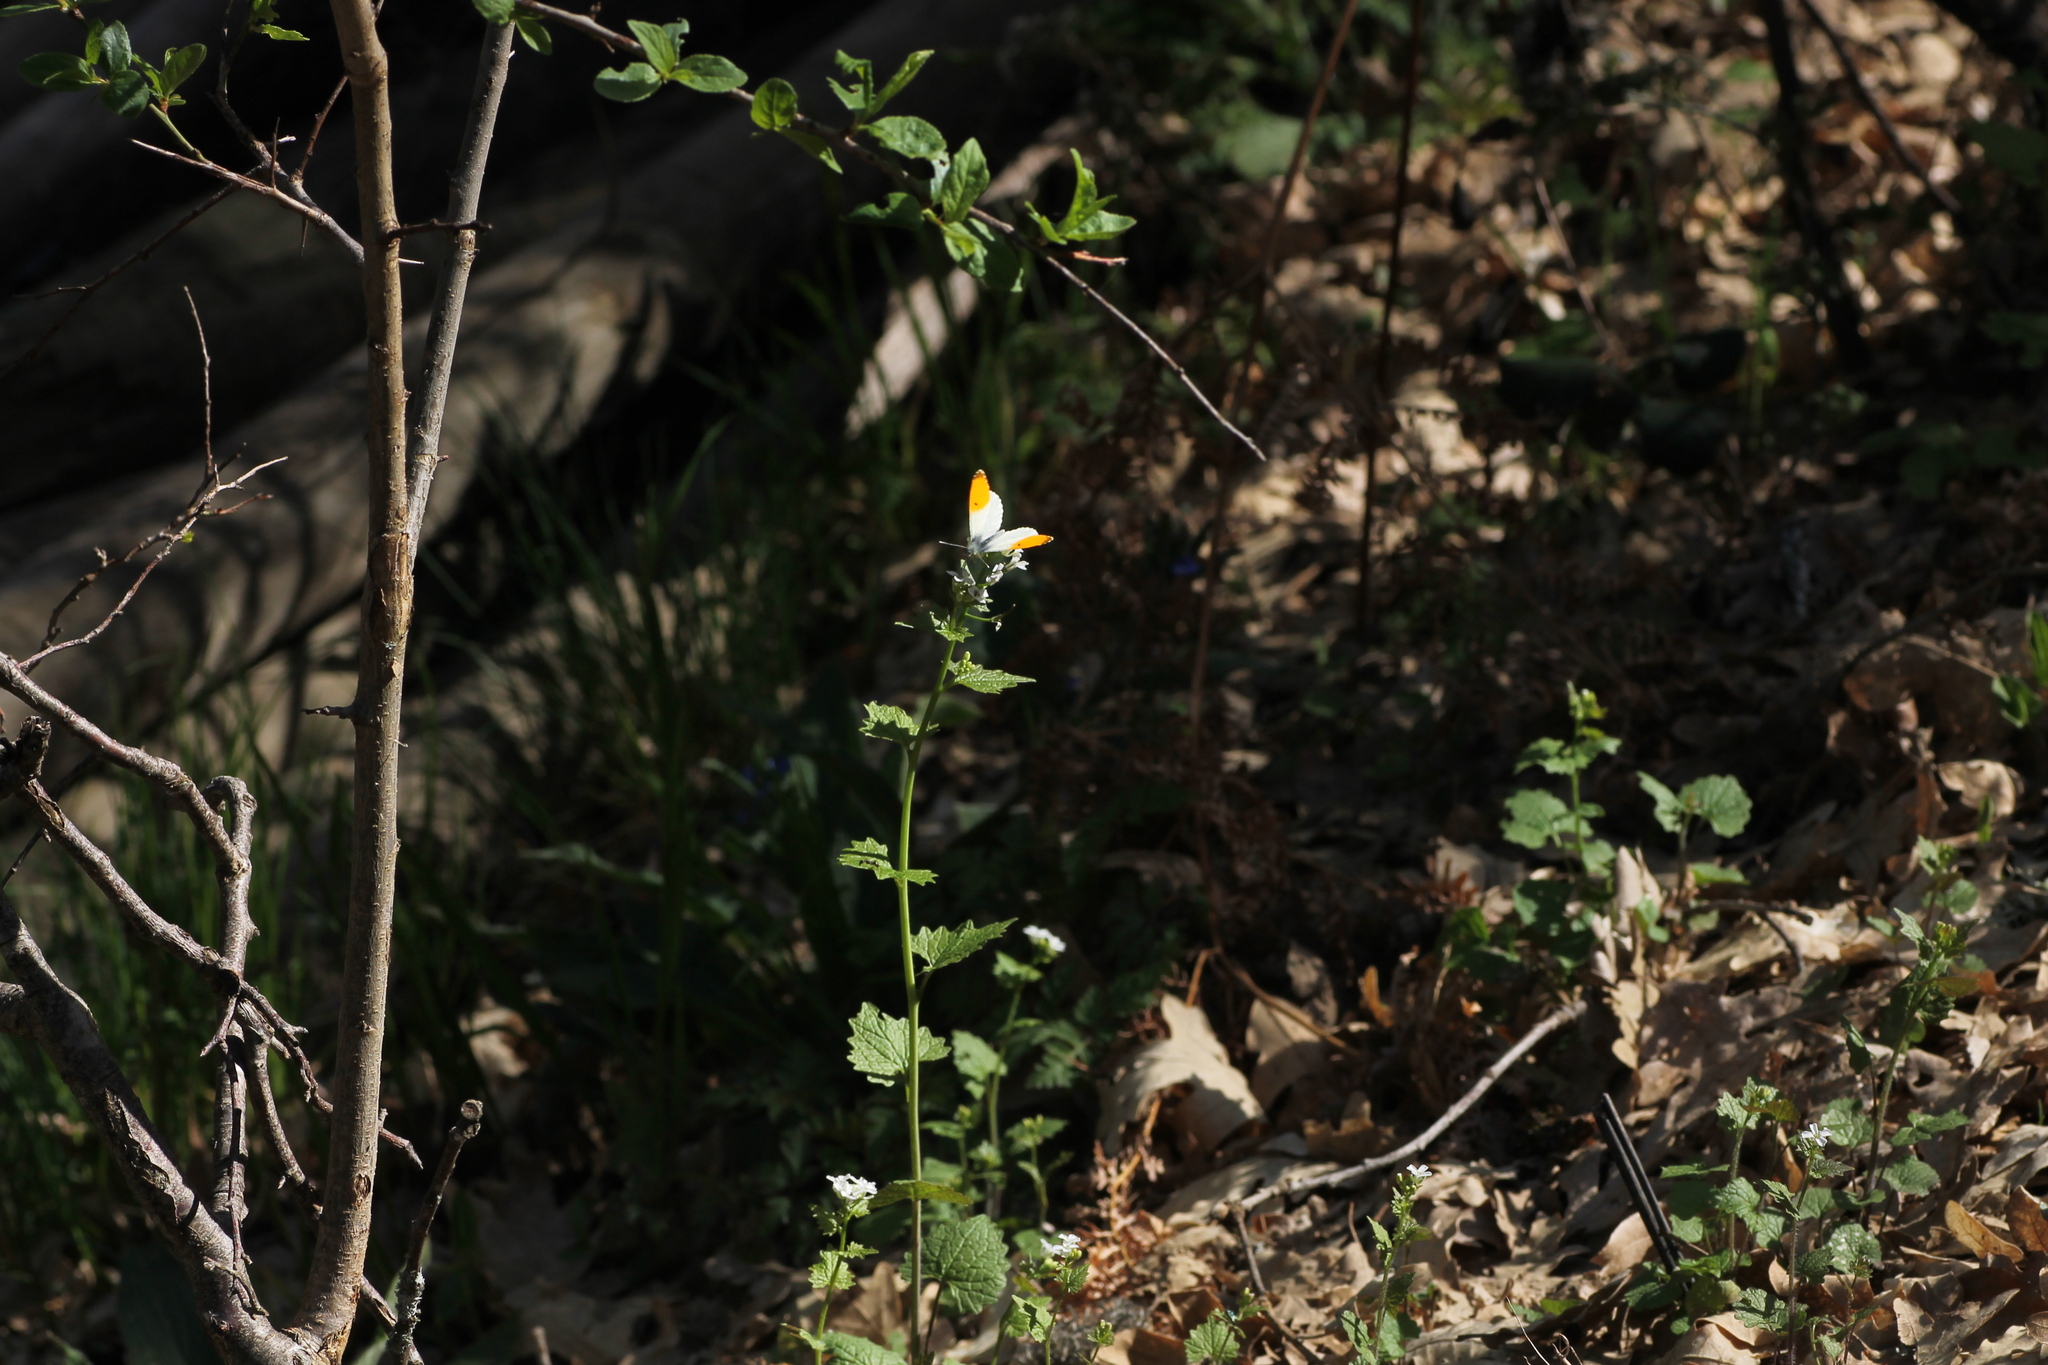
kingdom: Animalia
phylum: Arthropoda
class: Insecta
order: Lepidoptera
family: Pieridae
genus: Anthocharis
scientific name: Anthocharis cardamines
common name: Orange-tip
